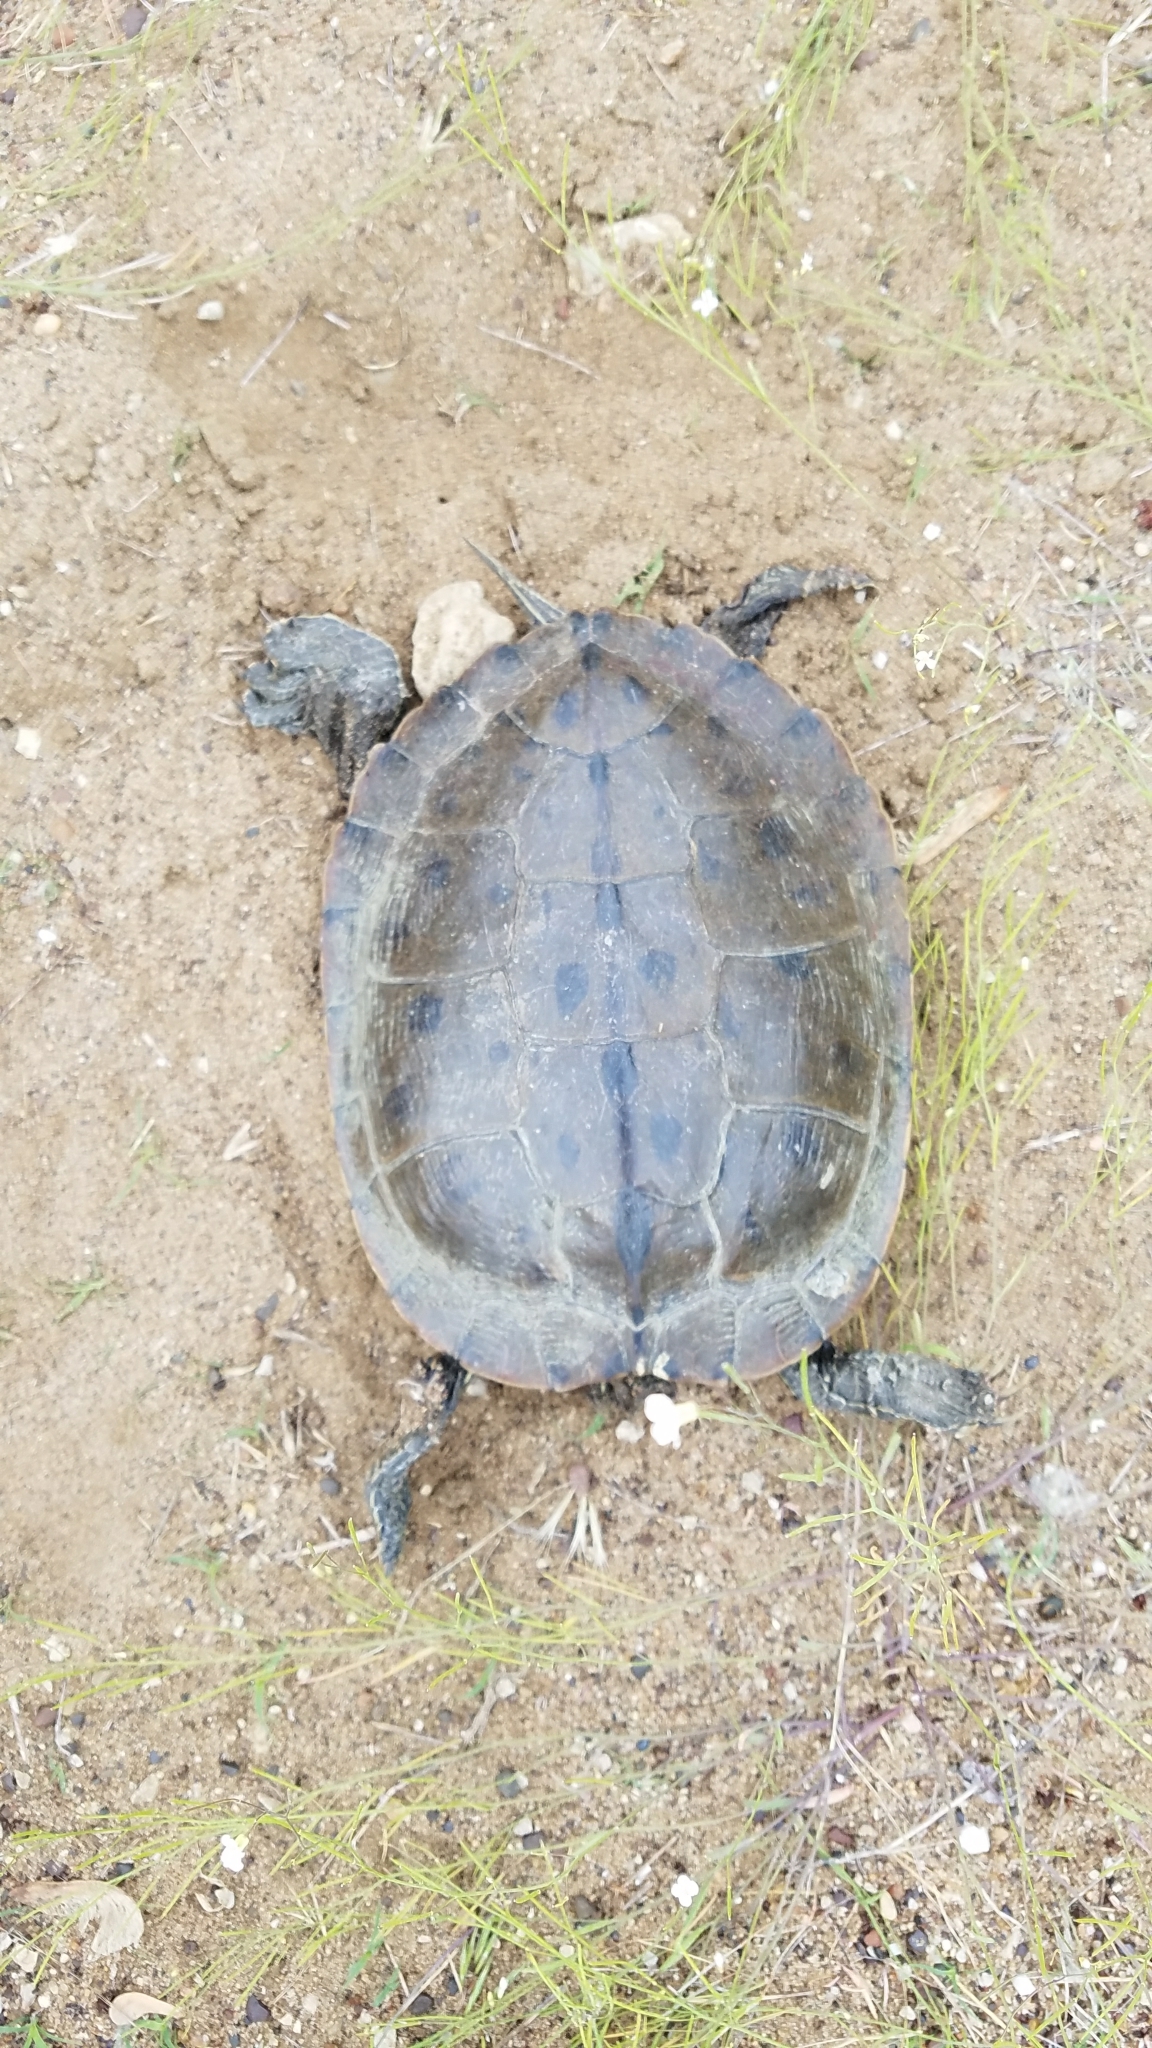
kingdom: Animalia
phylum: Chordata
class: Testudines
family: Emydidae
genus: Graptemys
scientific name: Graptemys geographica
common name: Common map turtle
